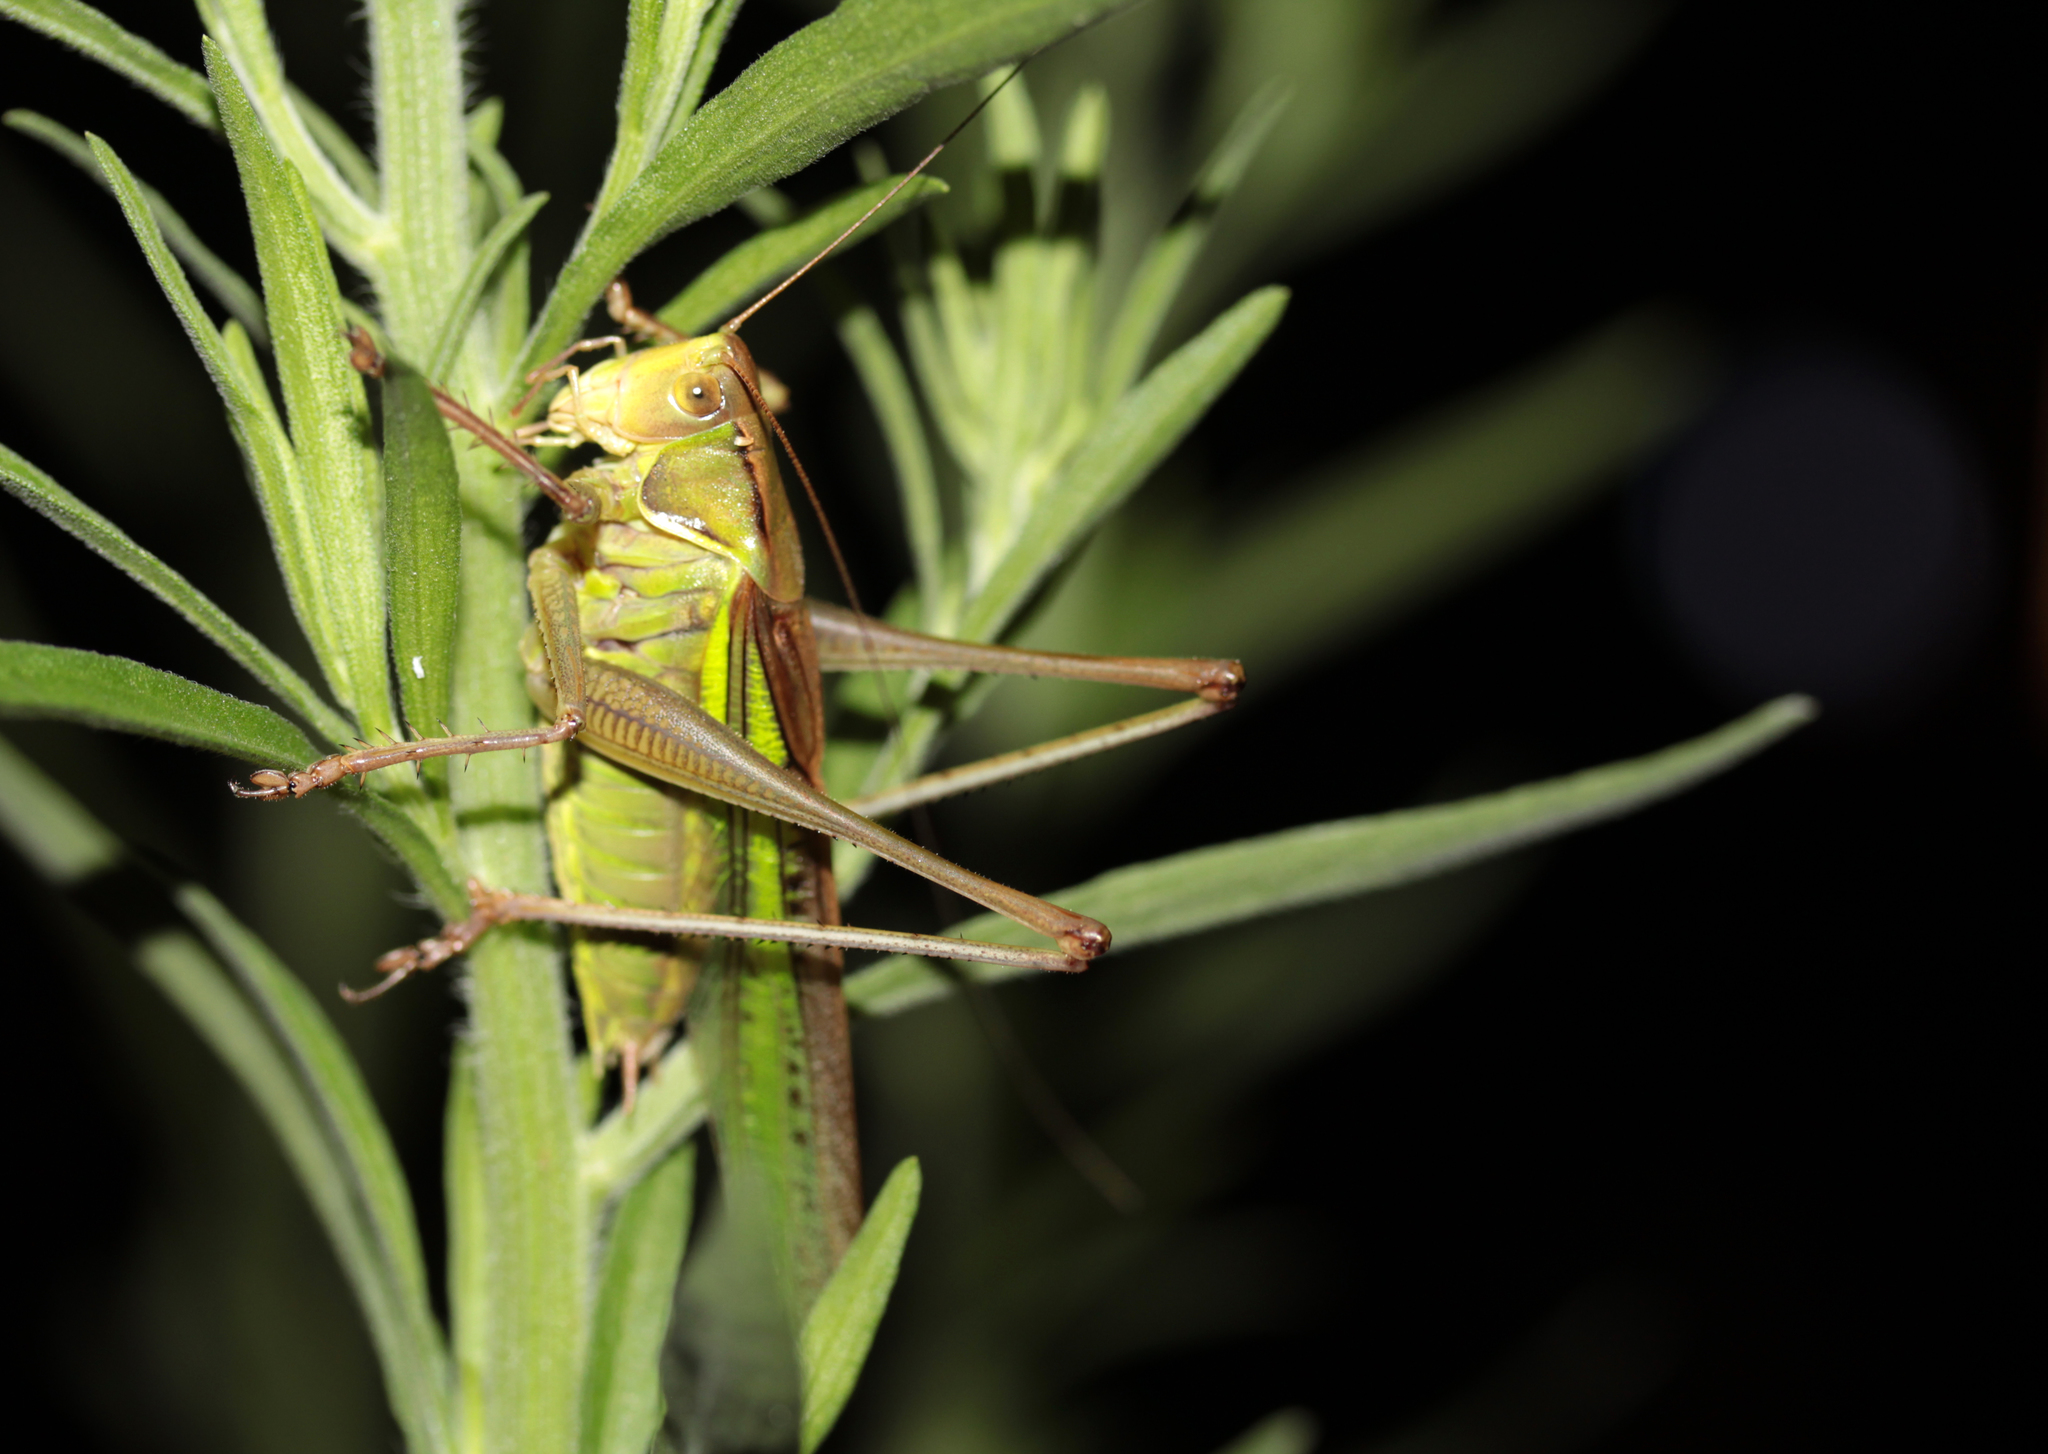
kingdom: Animalia
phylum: Arthropoda
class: Insecta
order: Orthoptera
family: Tettigoniidae
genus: Gampsocleis
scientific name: Gampsocleis ussuriensis
